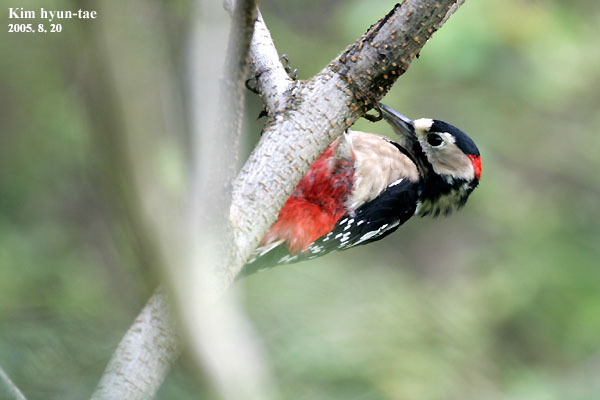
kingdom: Animalia
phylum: Chordata
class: Aves
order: Piciformes
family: Picidae
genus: Dendrocopos
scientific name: Dendrocopos major
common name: Great spotted woodpecker
